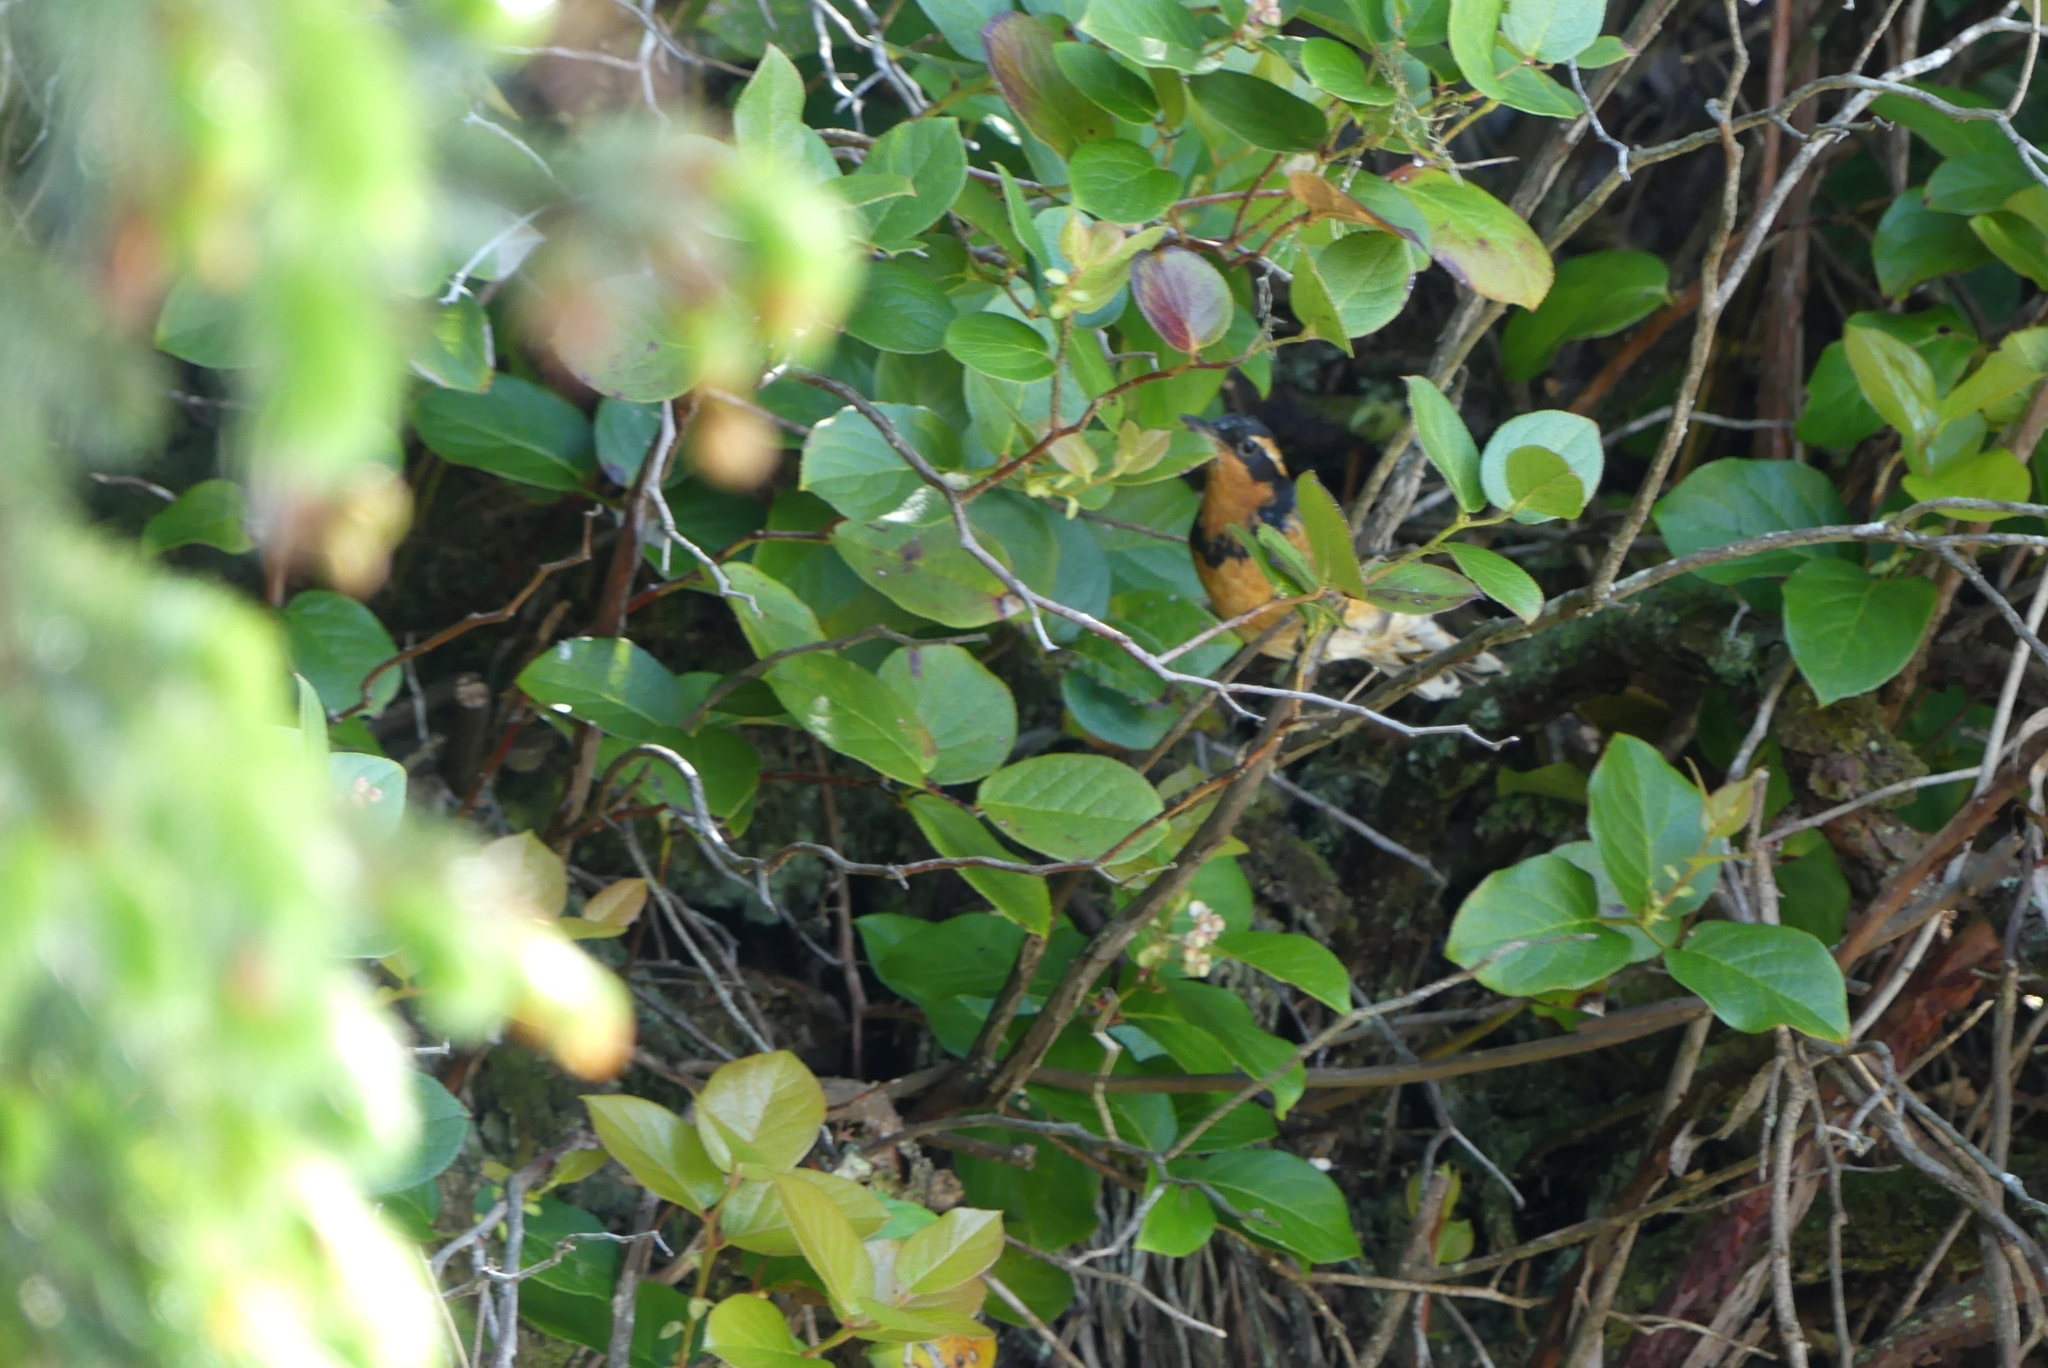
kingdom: Animalia
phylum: Chordata
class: Aves
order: Passeriformes
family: Turdidae
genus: Ixoreus
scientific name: Ixoreus naevius
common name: Varied thrush
